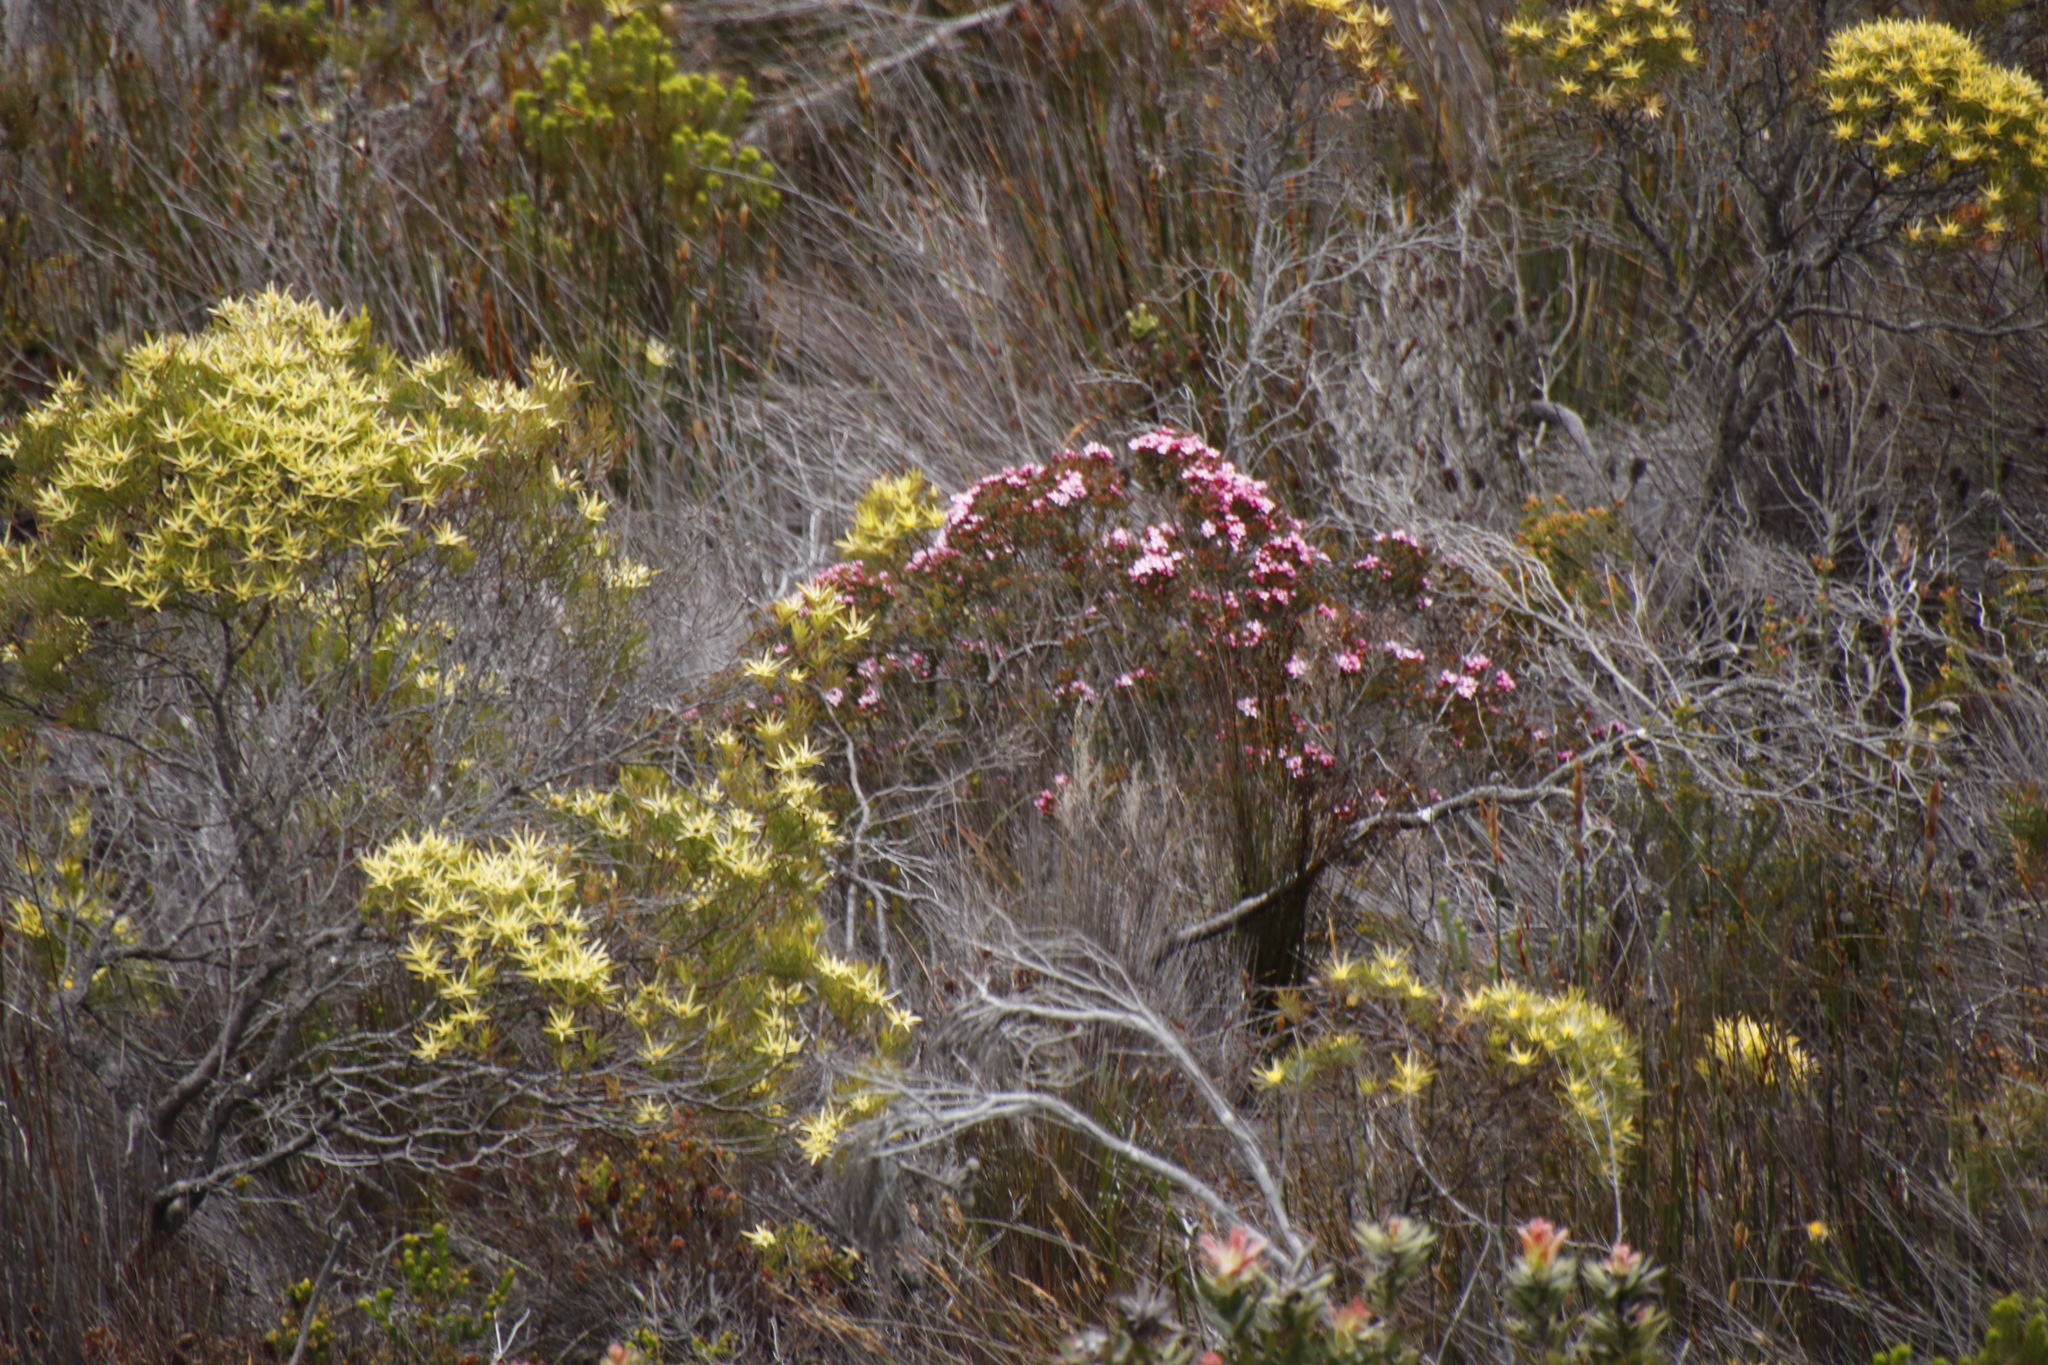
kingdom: Plantae
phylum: Tracheophyta
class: Magnoliopsida
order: Proteales
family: Proteaceae
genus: Leucadendron
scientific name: Leucadendron xanthoconus
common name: Sickle-leaf conebush
